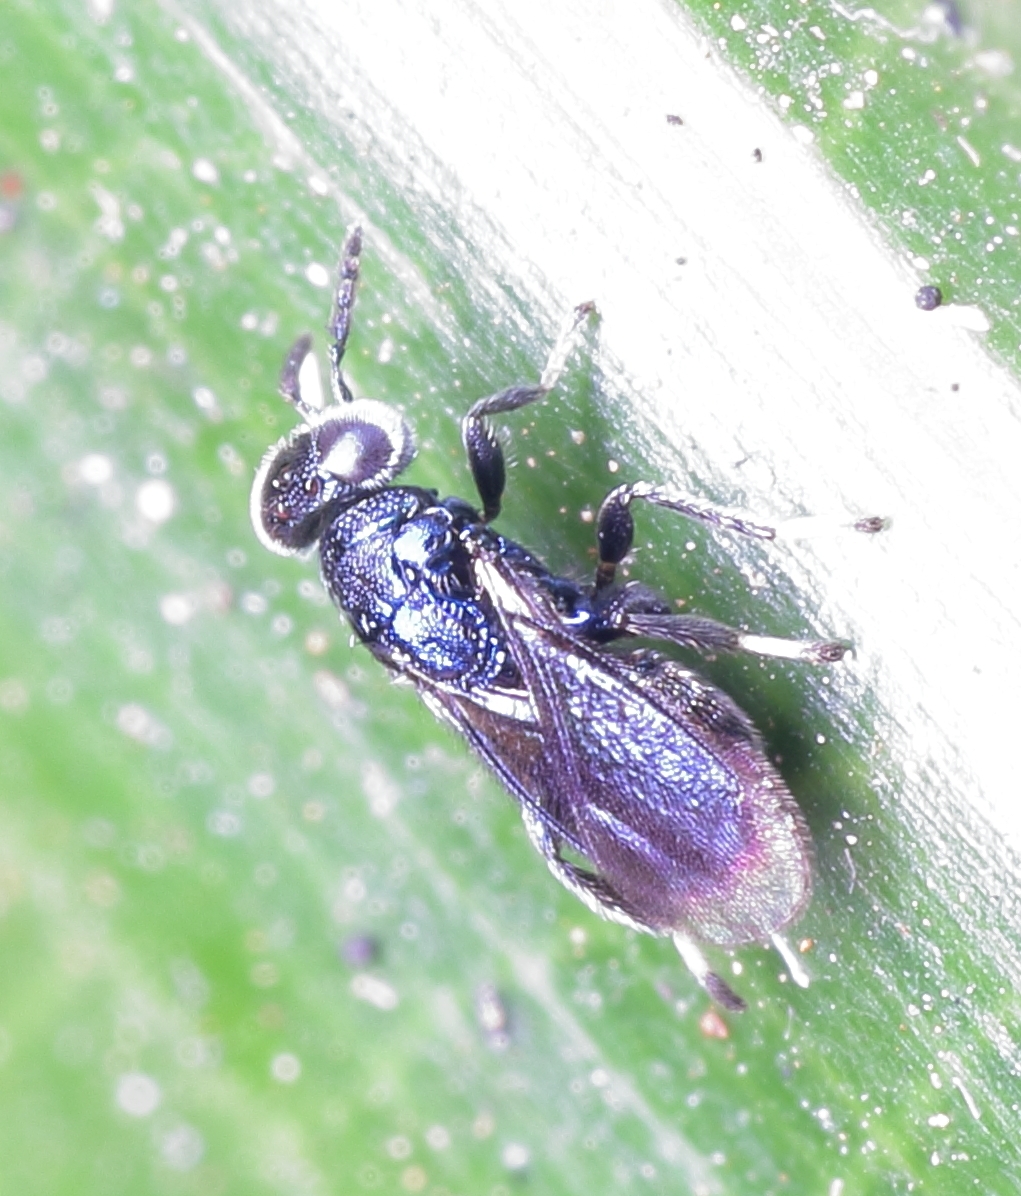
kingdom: Animalia
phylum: Arthropoda
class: Insecta
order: Hymenoptera
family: Eulophidae
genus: Pleurotroppopsis
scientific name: Pleurotroppopsis podagrica
